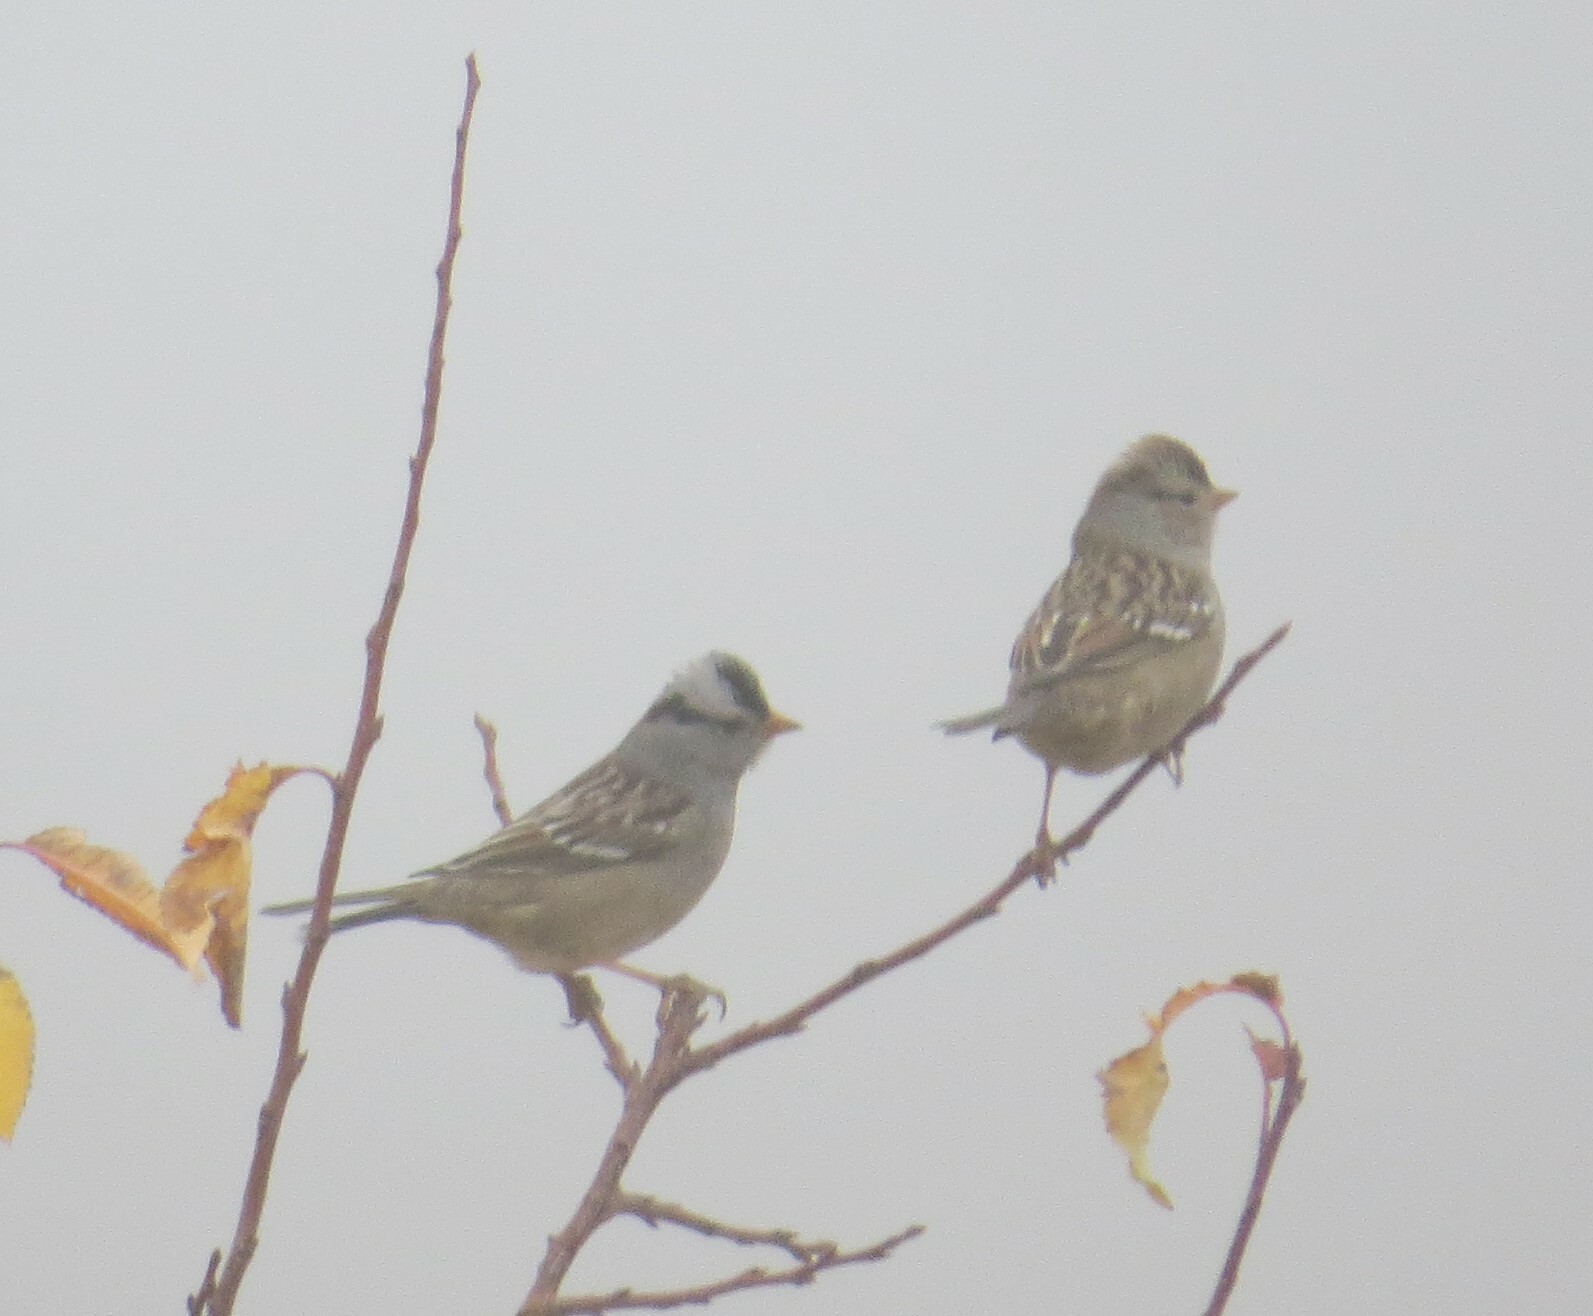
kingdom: Animalia
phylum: Chordata
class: Aves
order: Passeriformes
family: Passerellidae
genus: Zonotrichia
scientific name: Zonotrichia leucophrys
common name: White-crowned sparrow
